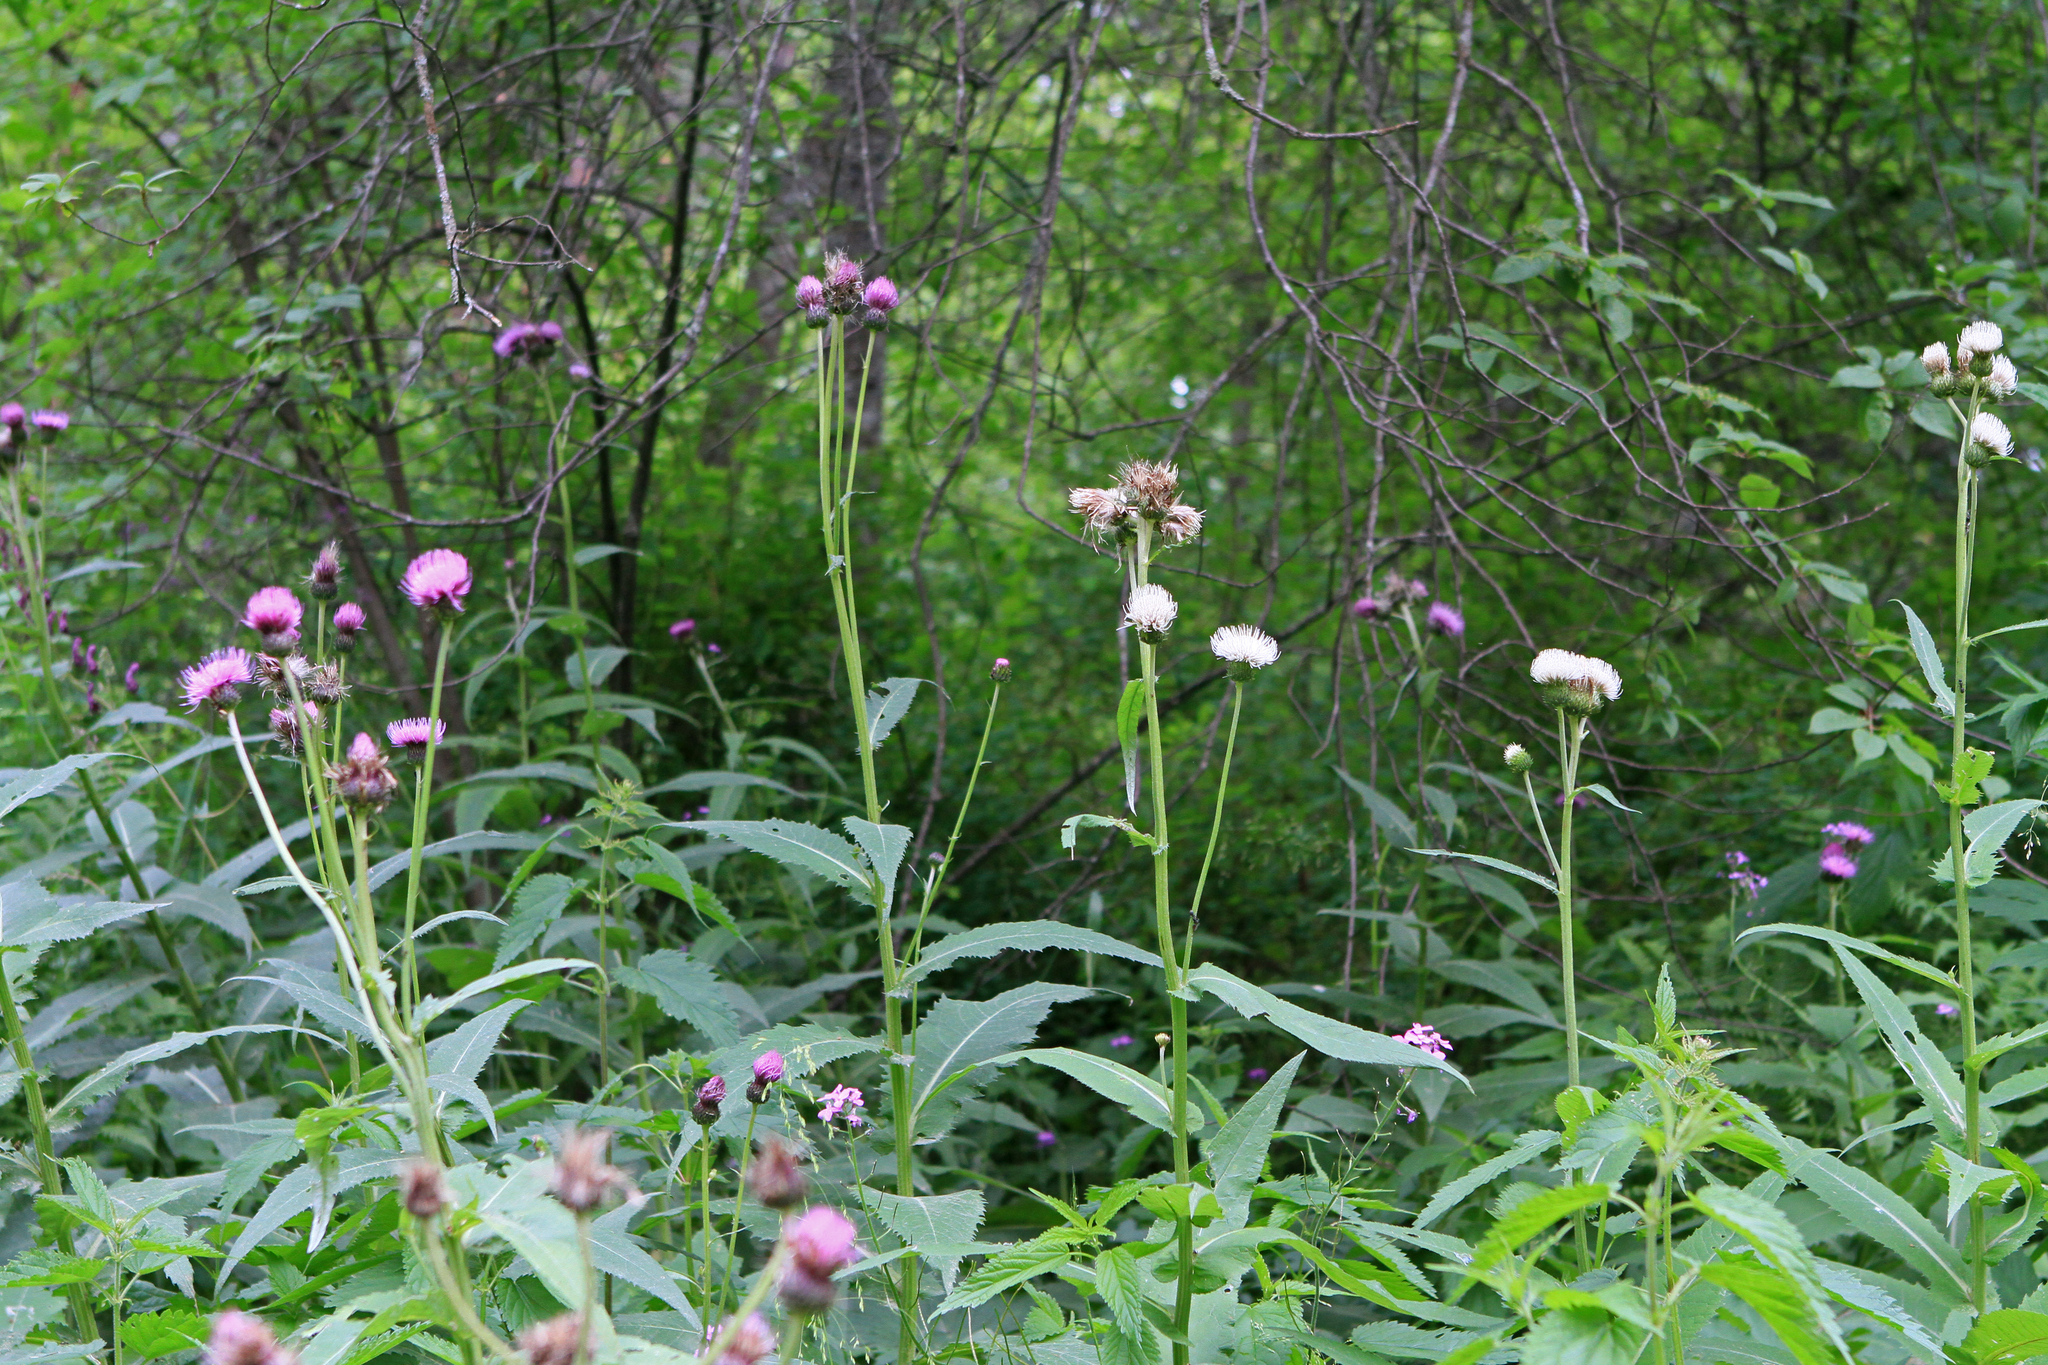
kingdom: Plantae
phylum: Tracheophyta
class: Magnoliopsida
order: Asterales
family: Asteraceae
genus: Cirsium
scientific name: Cirsium helenioides
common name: Melancholy thistle
